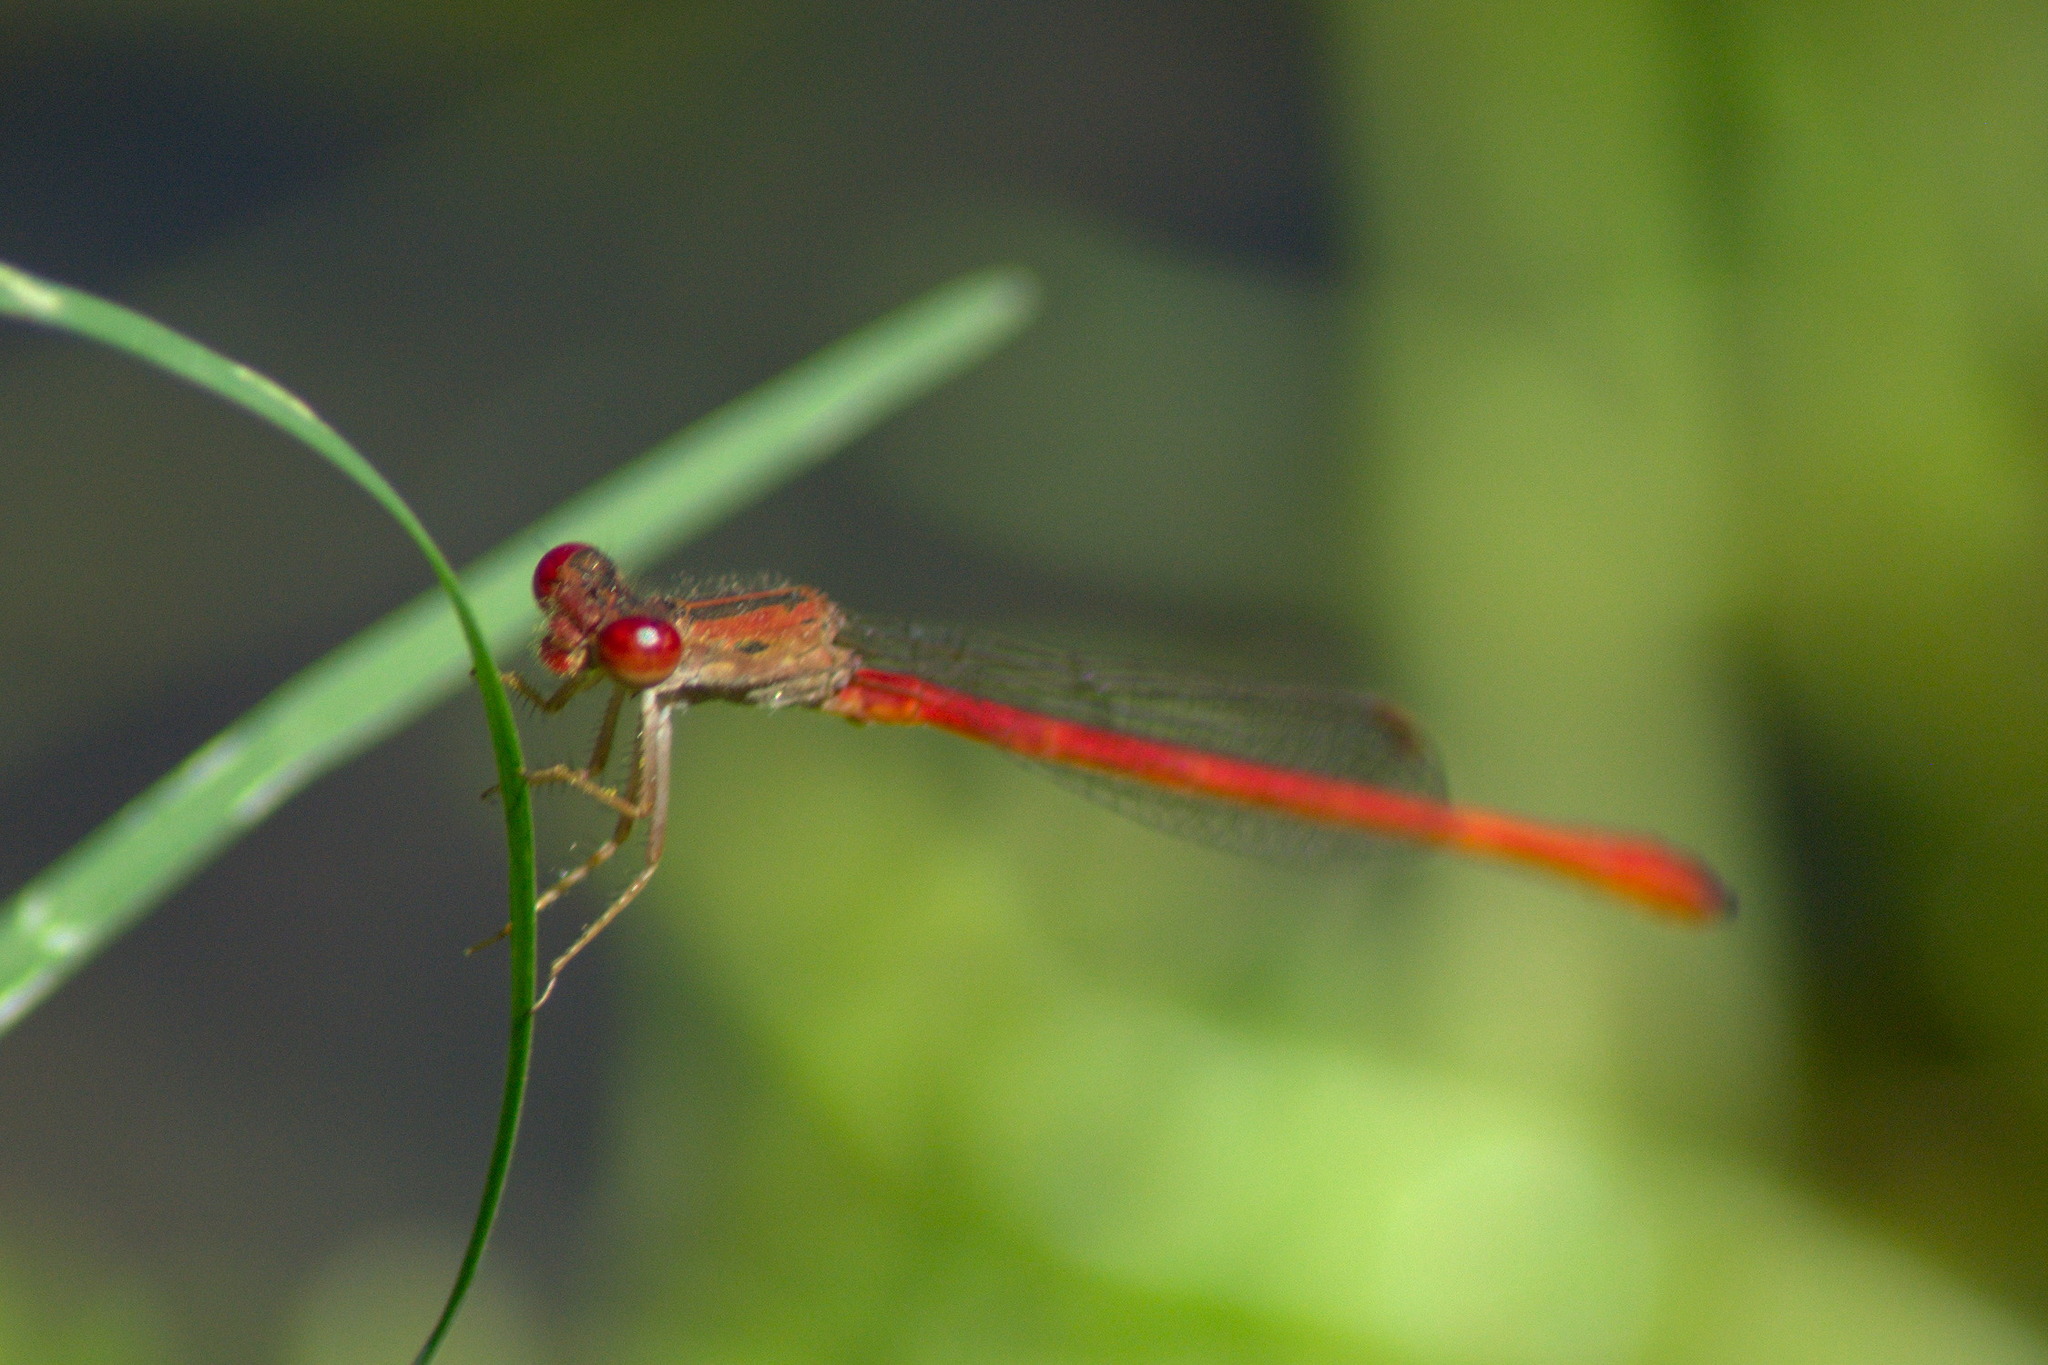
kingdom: Animalia
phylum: Arthropoda
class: Insecta
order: Odonata
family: Coenagrionidae
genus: Telebasis
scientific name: Telebasis salva
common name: Desert firetail
